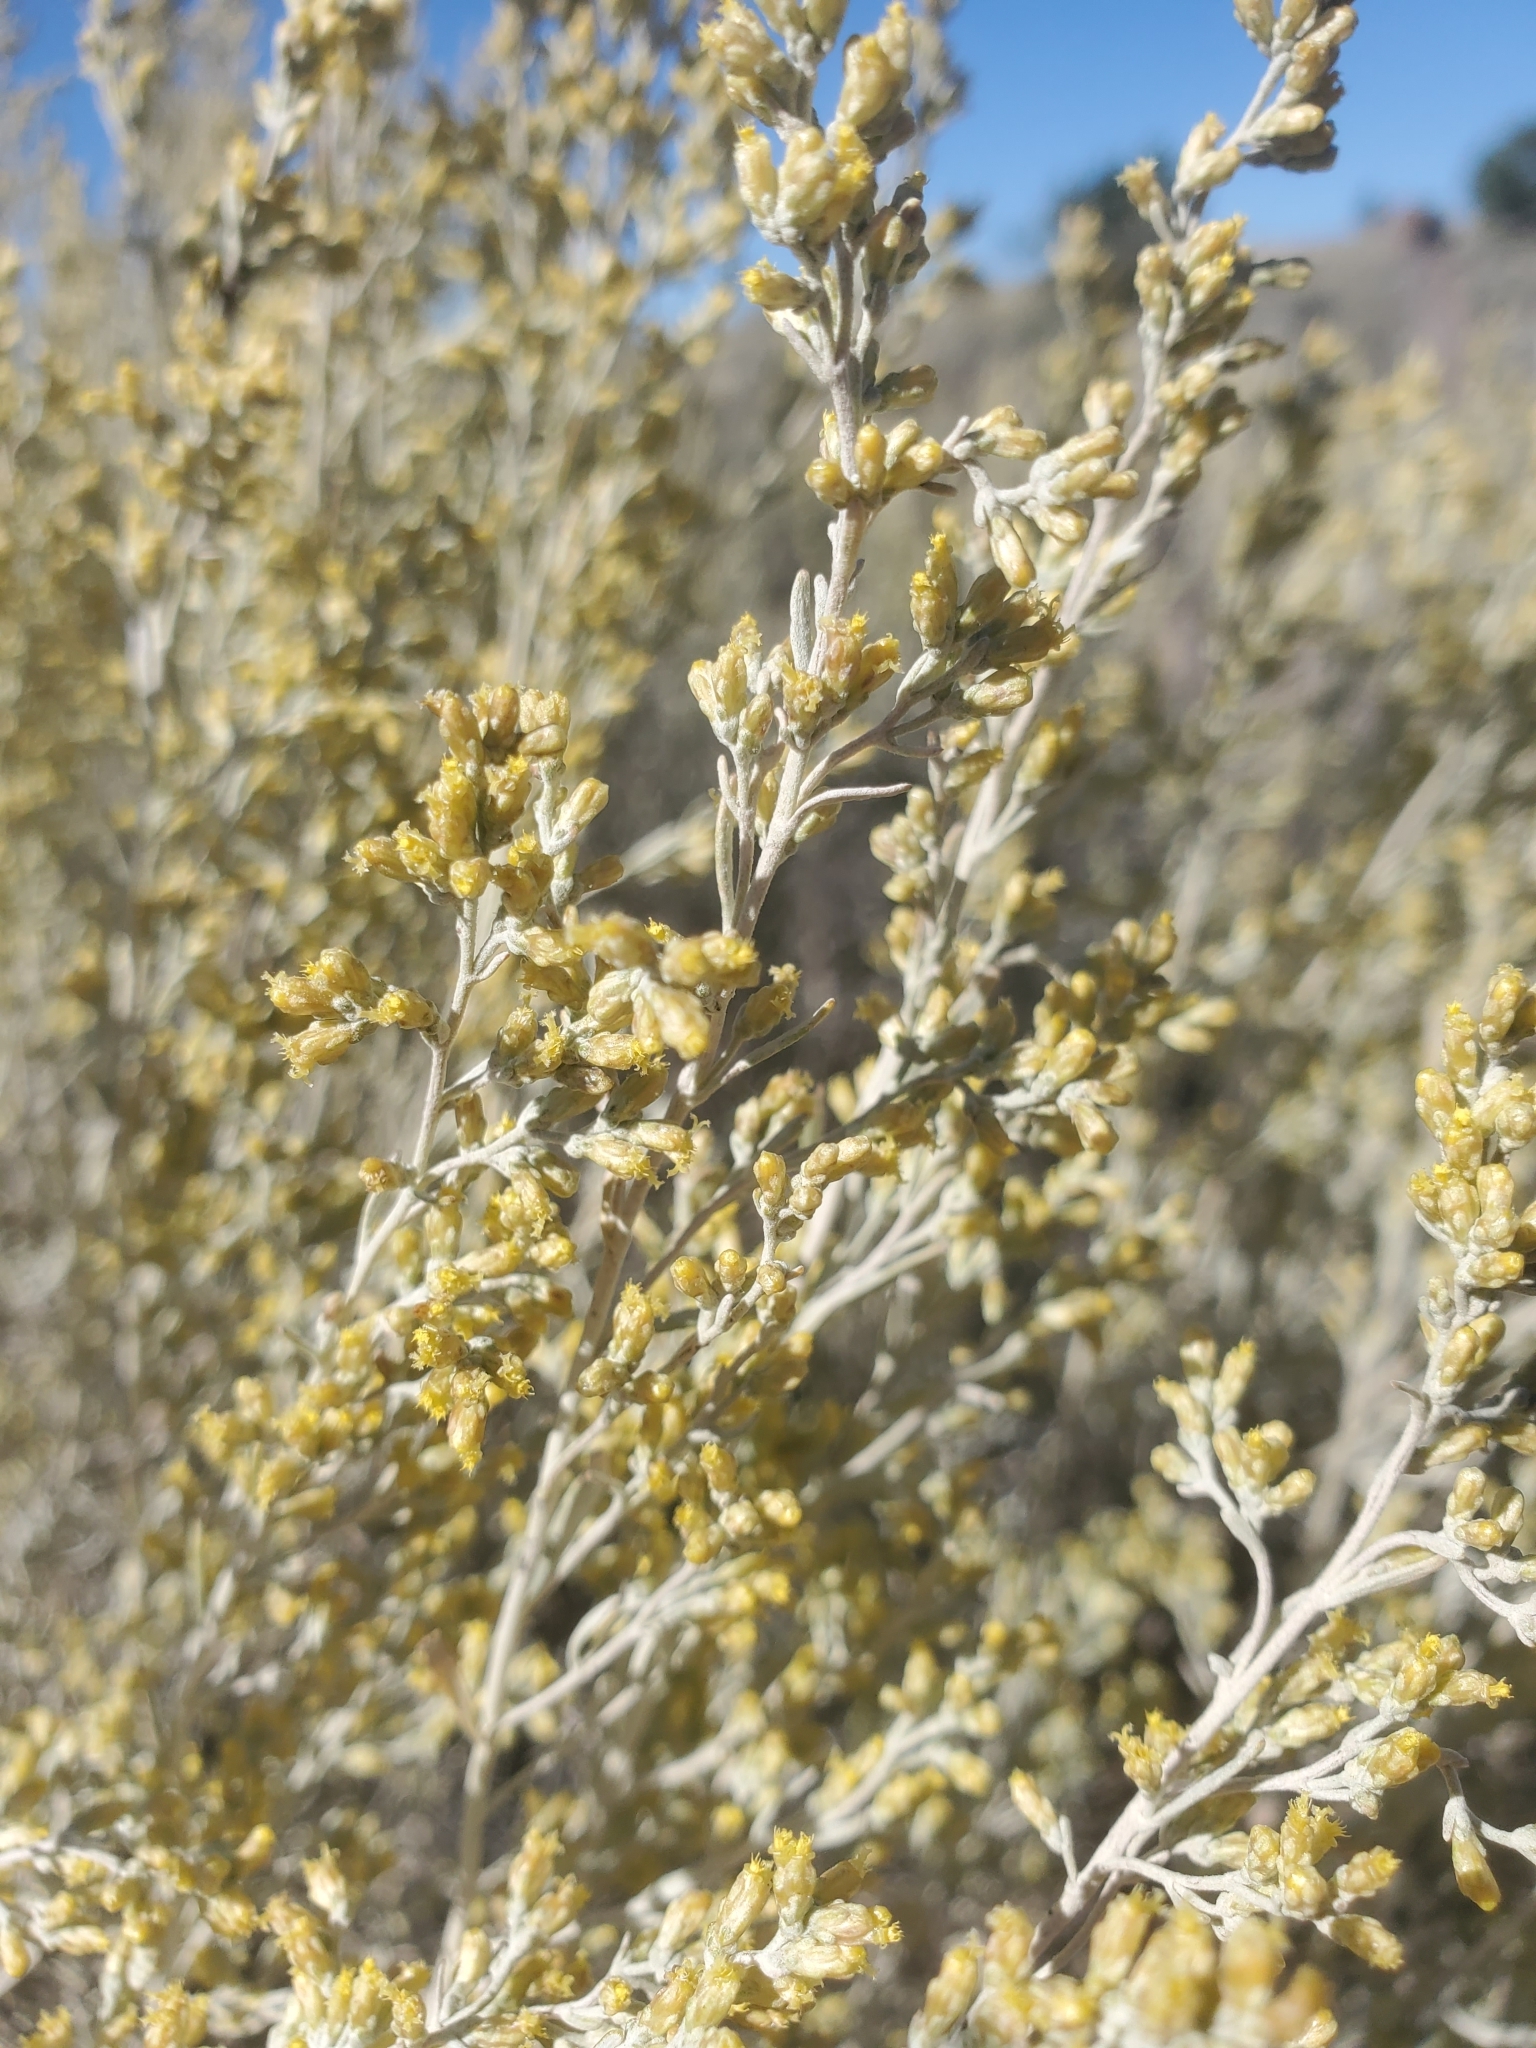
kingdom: Plantae
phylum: Tracheophyta
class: Magnoliopsida
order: Asterales
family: Asteraceae
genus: Artemisia
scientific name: Artemisia tridentata
